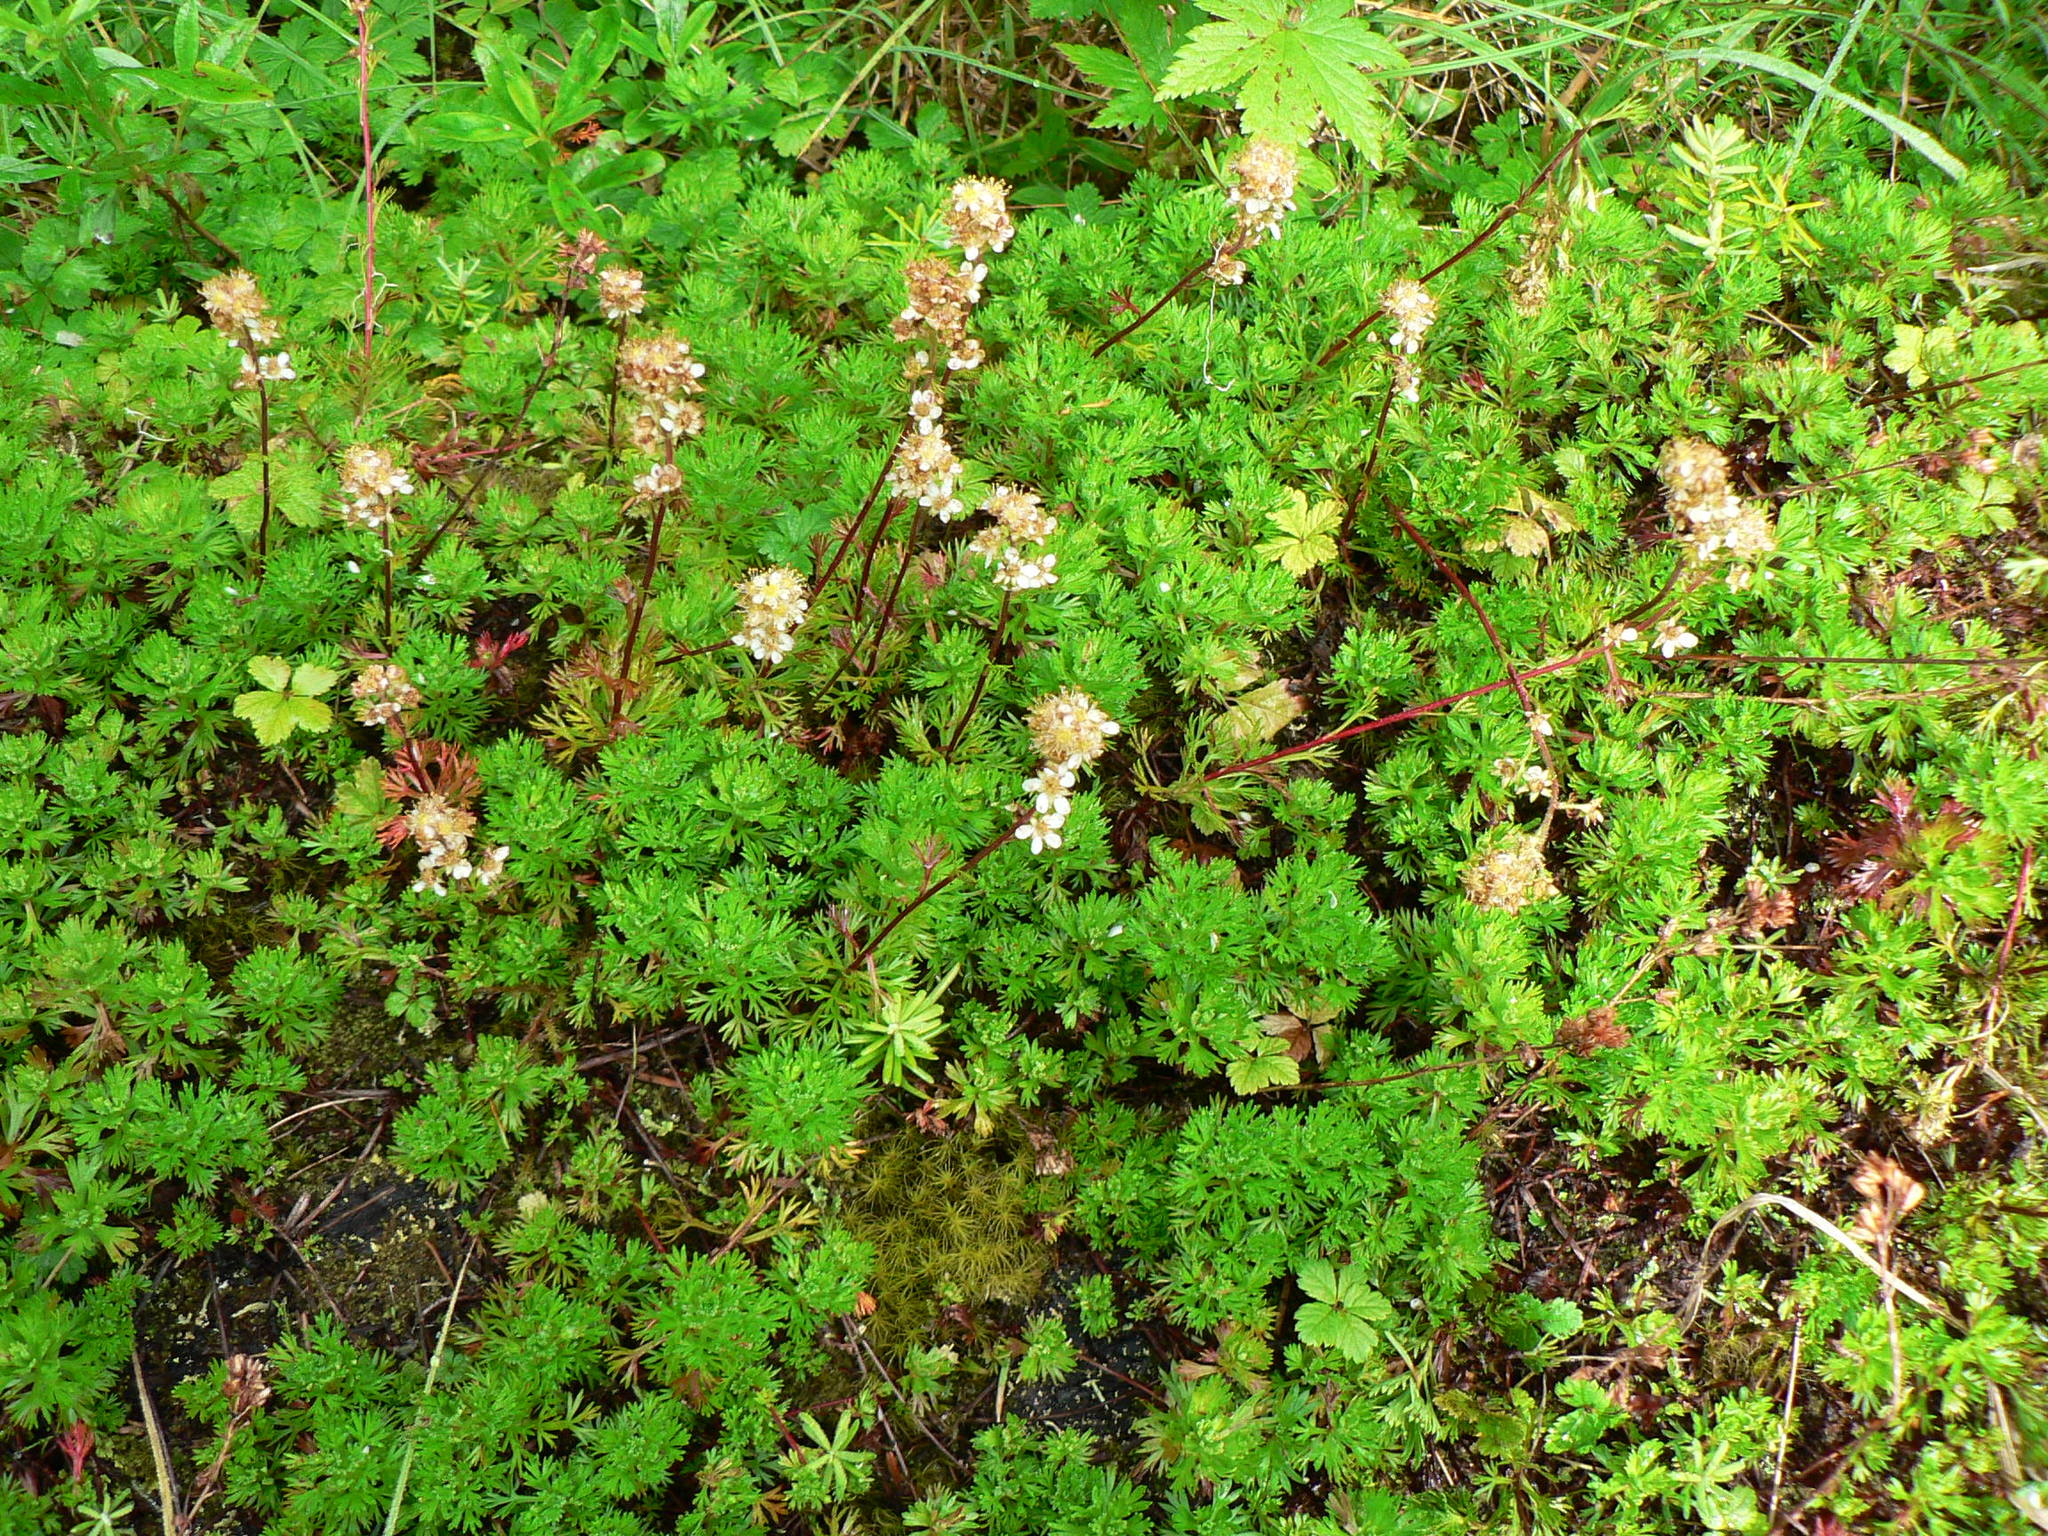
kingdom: Plantae
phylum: Tracheophyta
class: Magnoliopsida
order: Rosales
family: Rosaceae
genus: Luetkea
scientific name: Luetkea pectinata
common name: Partridgefoot
